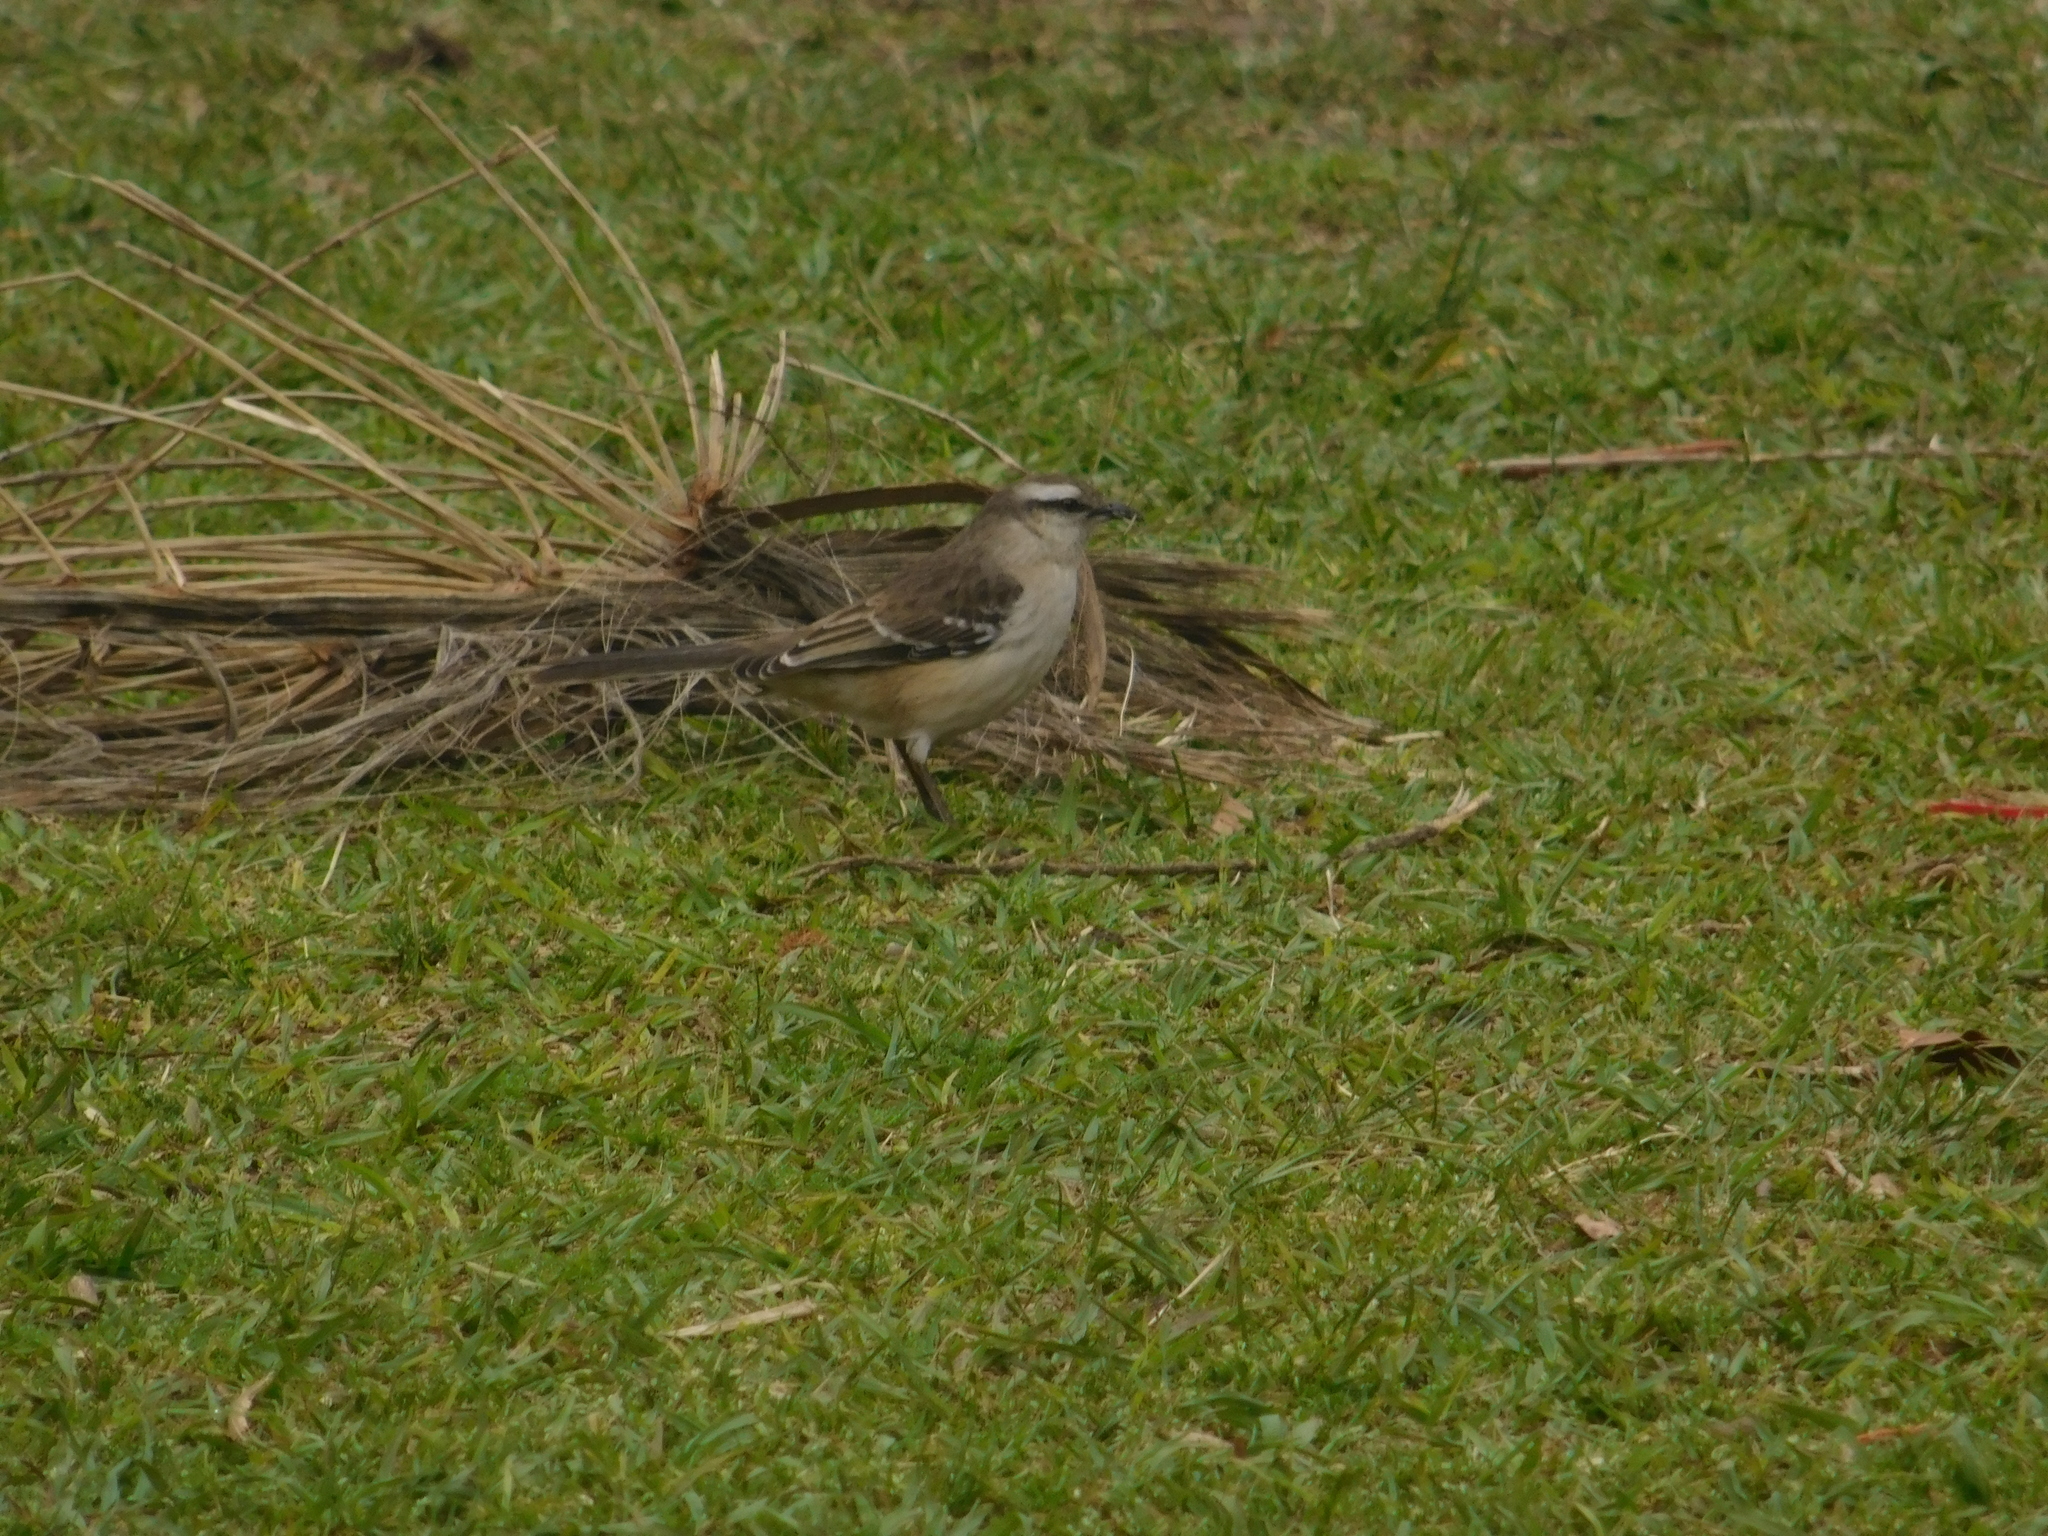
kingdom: Animalia
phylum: Chordata
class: Aves
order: Passeriformes
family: Mimidae
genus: Mimus
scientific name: Mimus saturninus
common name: Chalk-browed mockingbird
